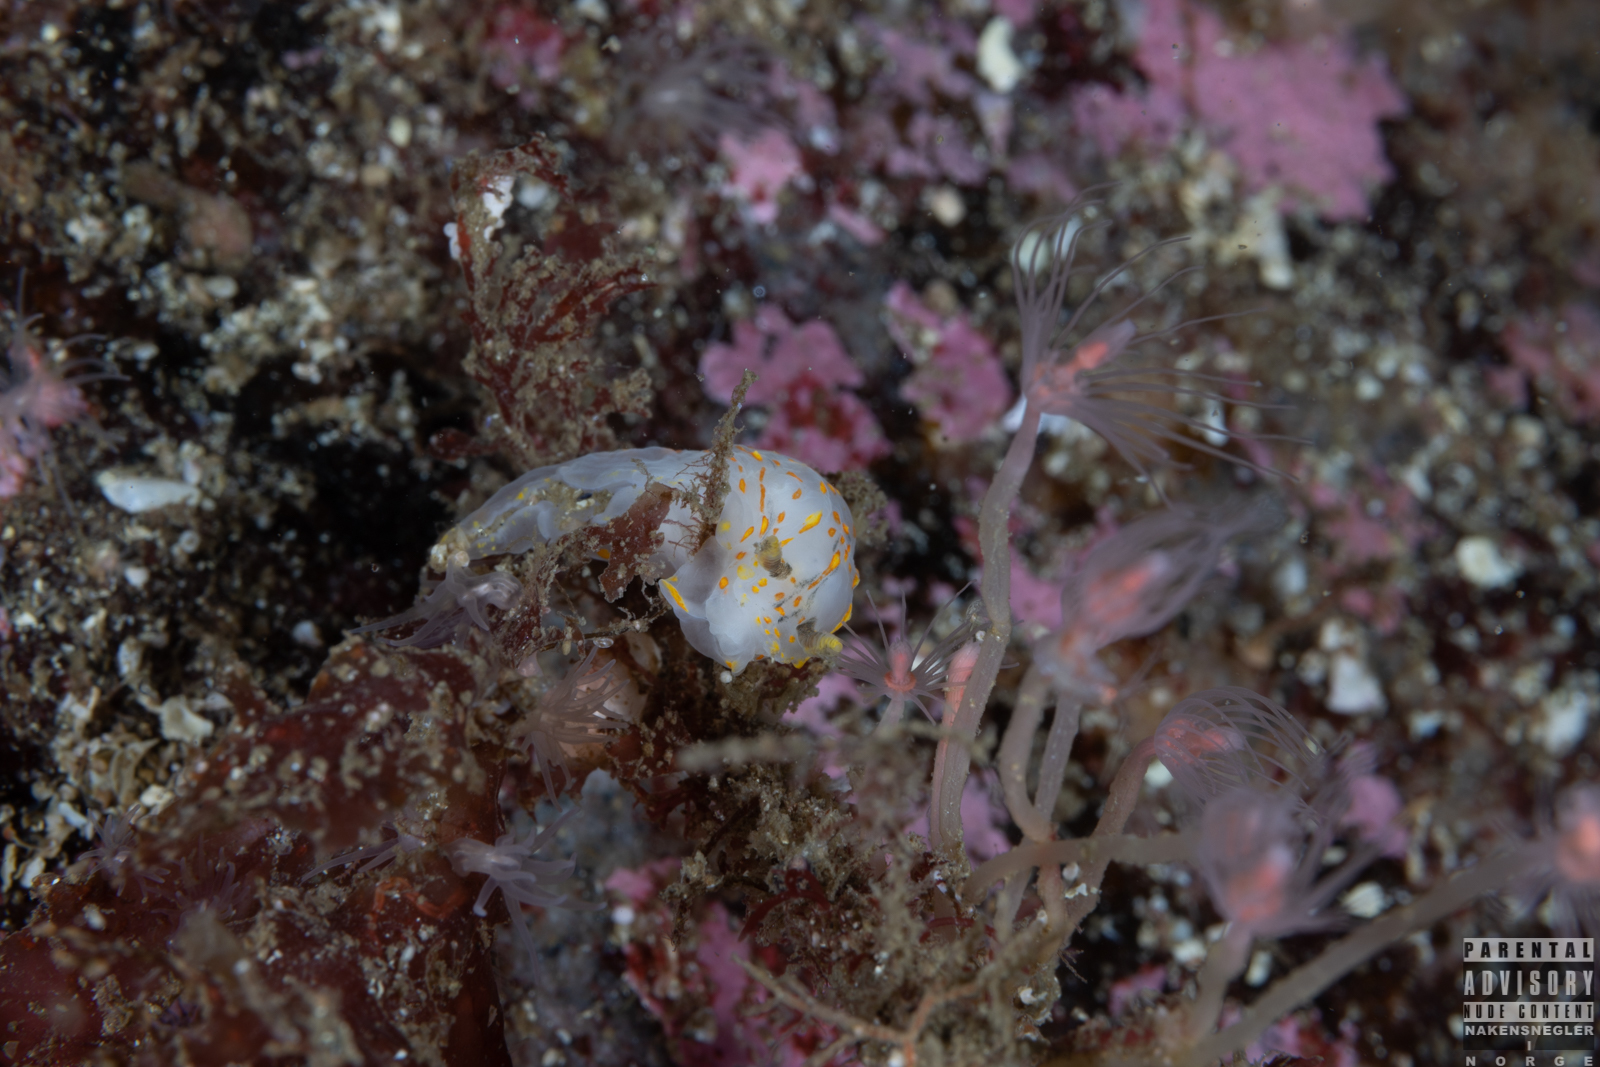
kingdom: Animalia
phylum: Mollusca
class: Gastropoda
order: Nudibranchia
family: Polyceridae
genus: Polycera
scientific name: Polycera quadrilineata
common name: Four-striped polycera
